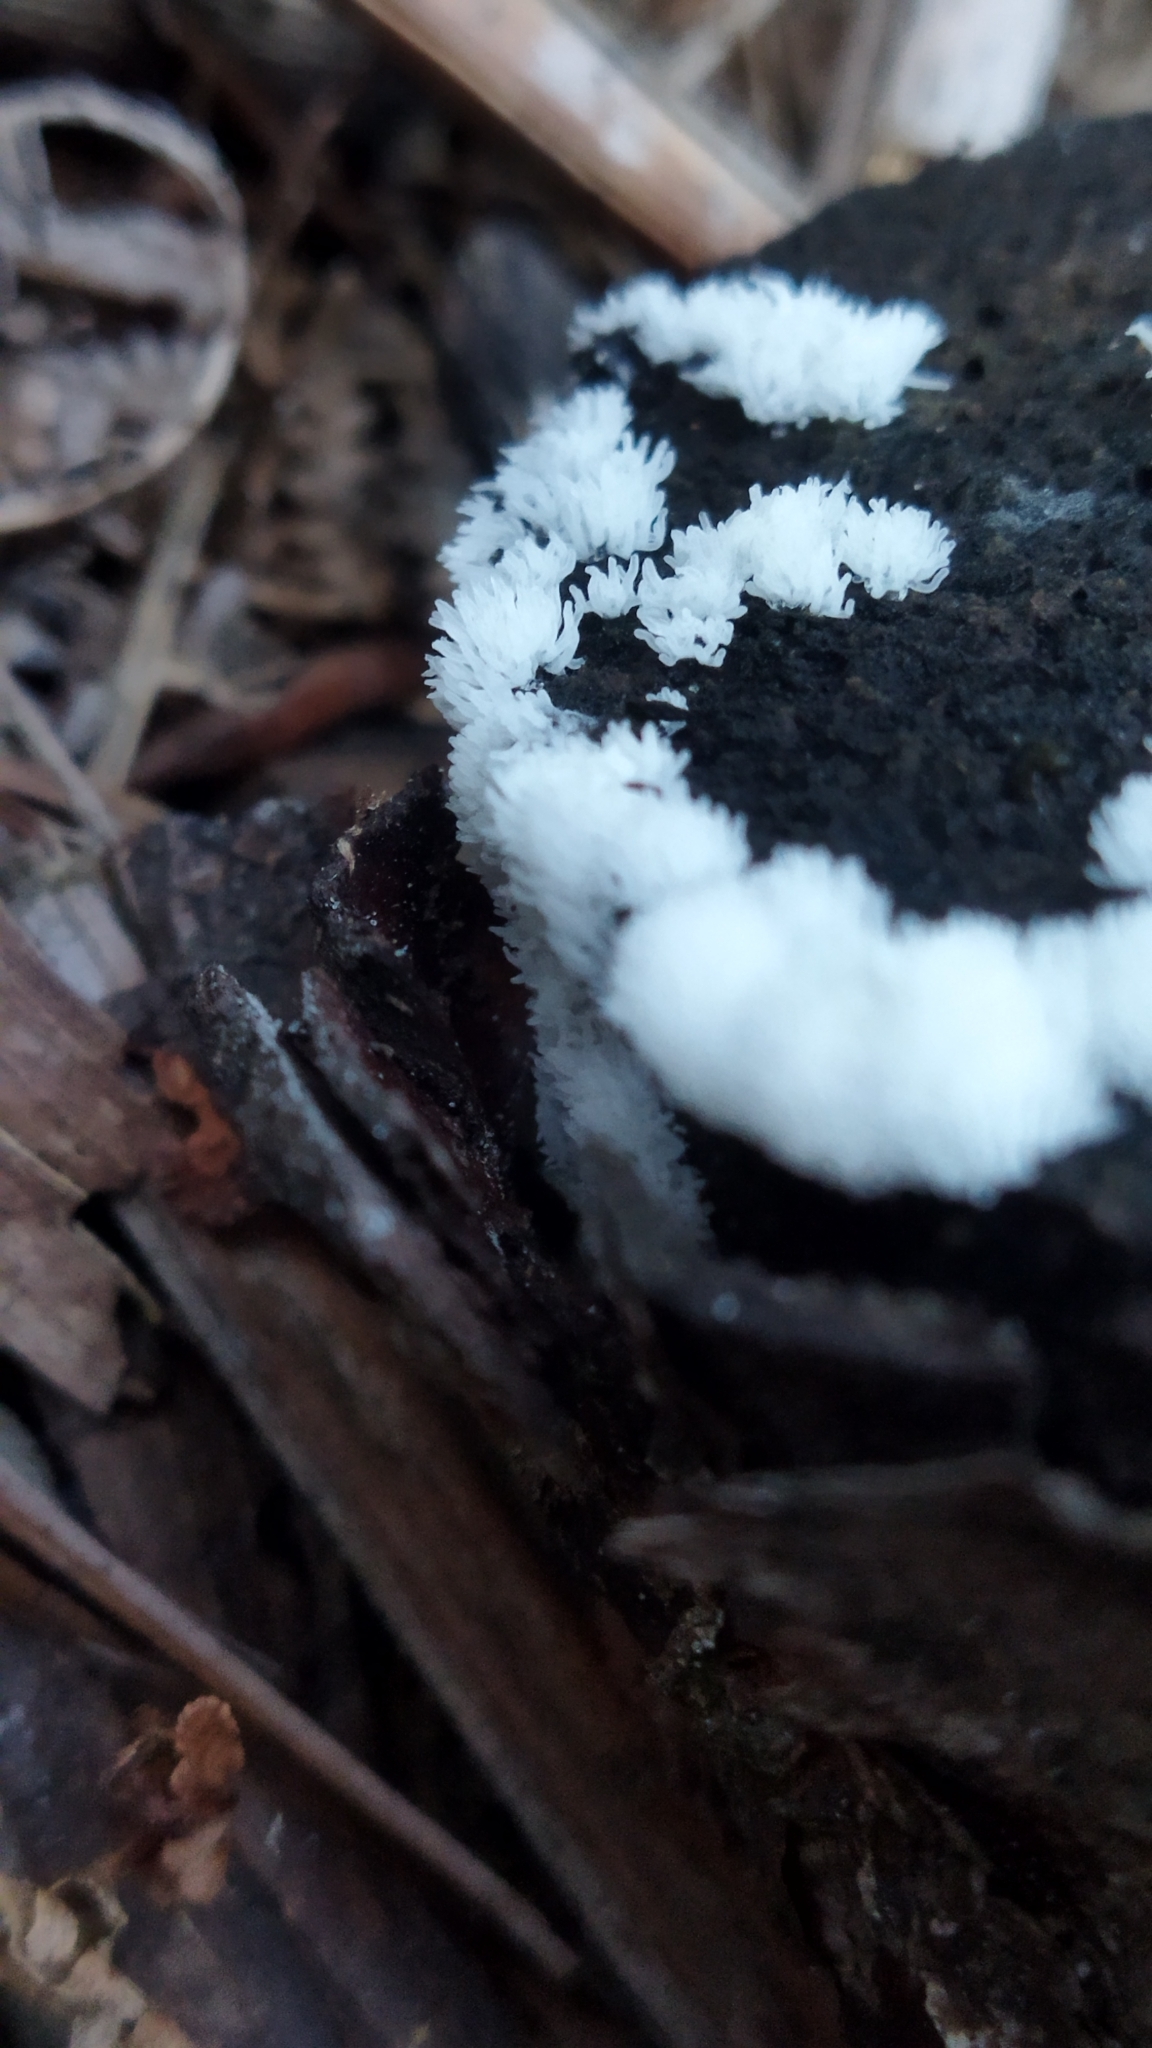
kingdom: Protozoa
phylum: Mycetozoa
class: Protosteliomycetes
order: Ceratiomyxales
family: Ceratiomyxaceae
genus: Ceratiomyxa
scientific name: Ceratiomyxa fruticulosa
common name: Honeycomb coral slime mold
